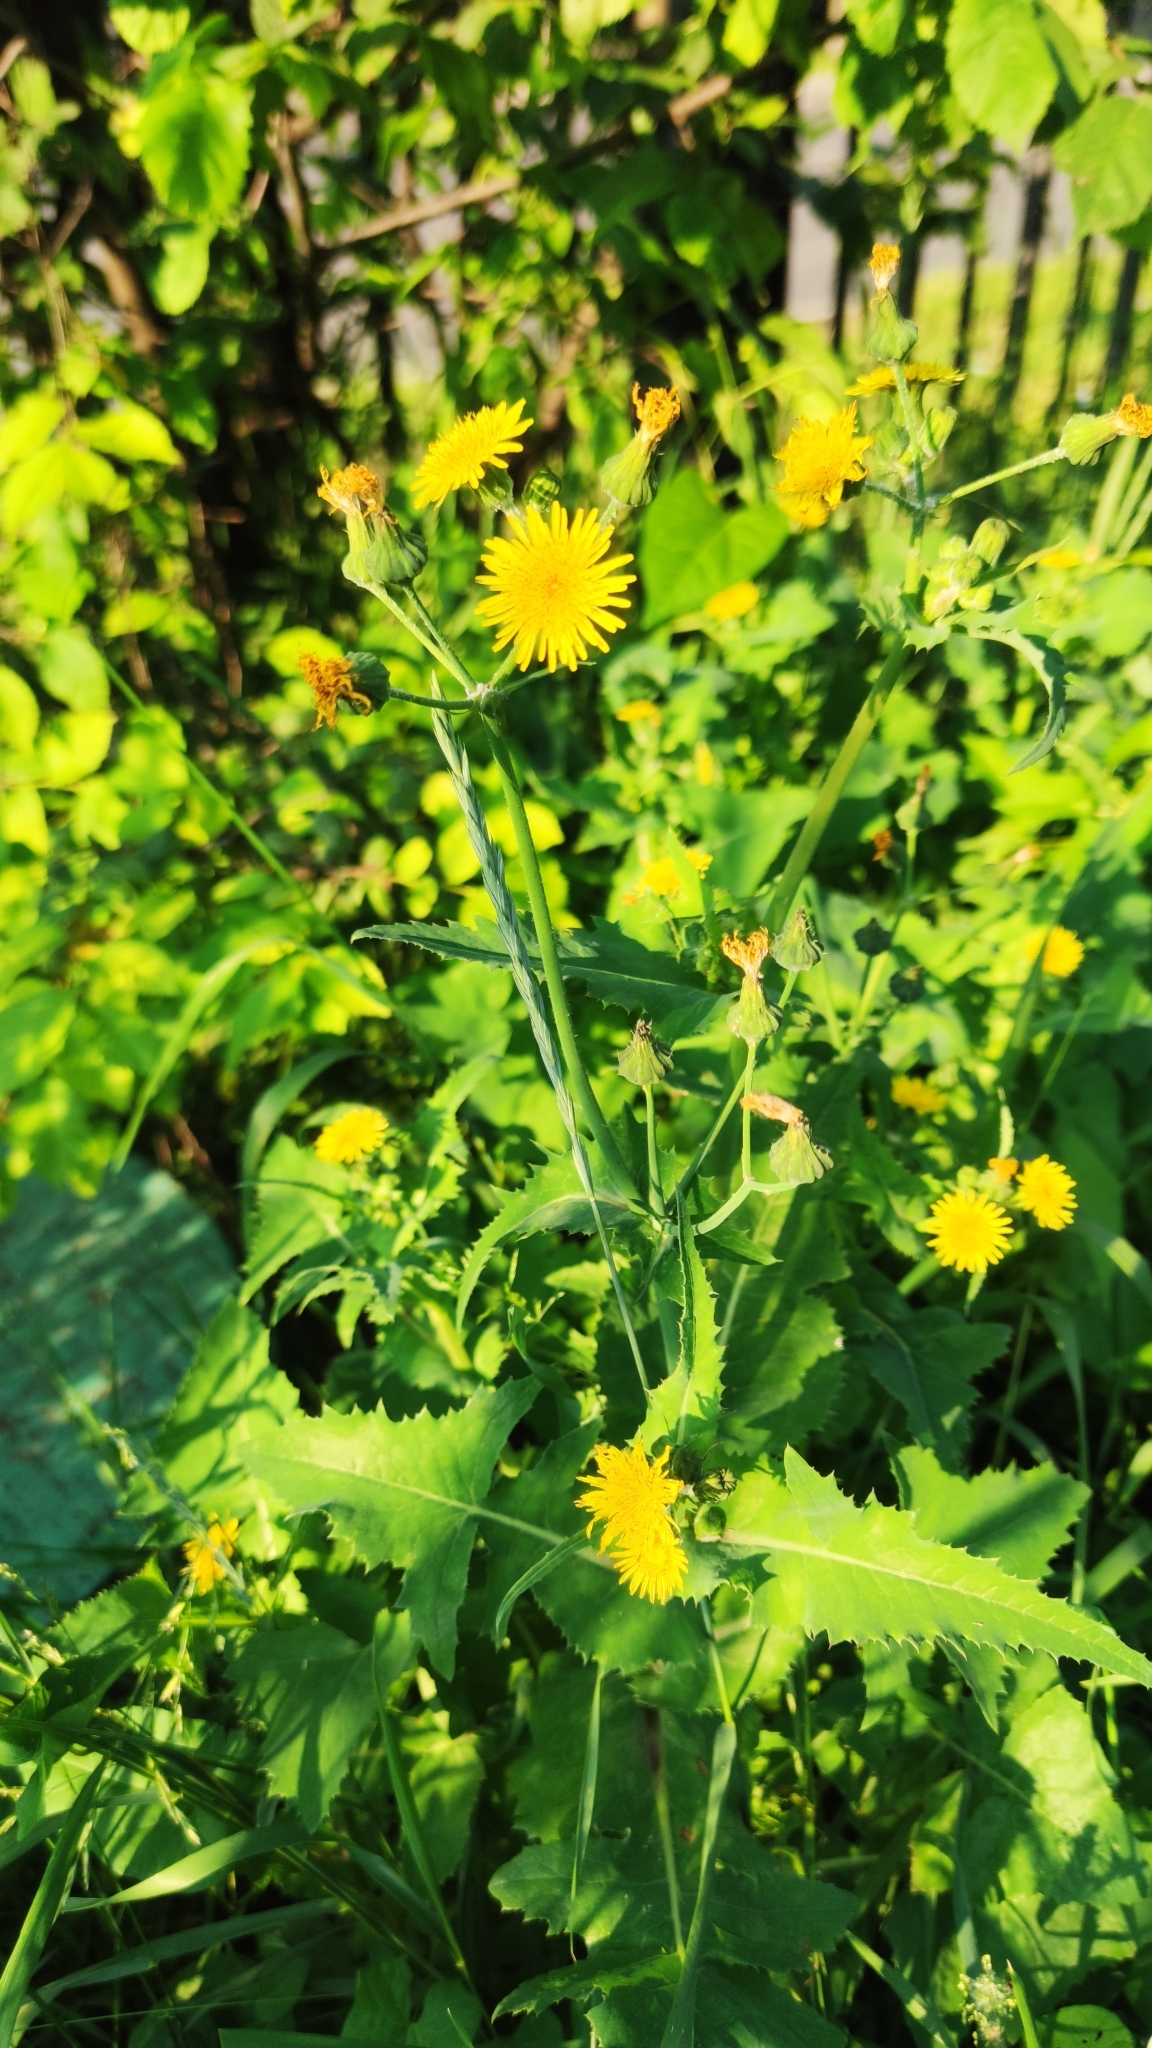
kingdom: Plantae
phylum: Tracheophyta
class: Magnoliopsida
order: Asterales
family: Asteraceae
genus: Sonchus
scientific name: Sonchus oleraceus
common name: Common sowthistle
